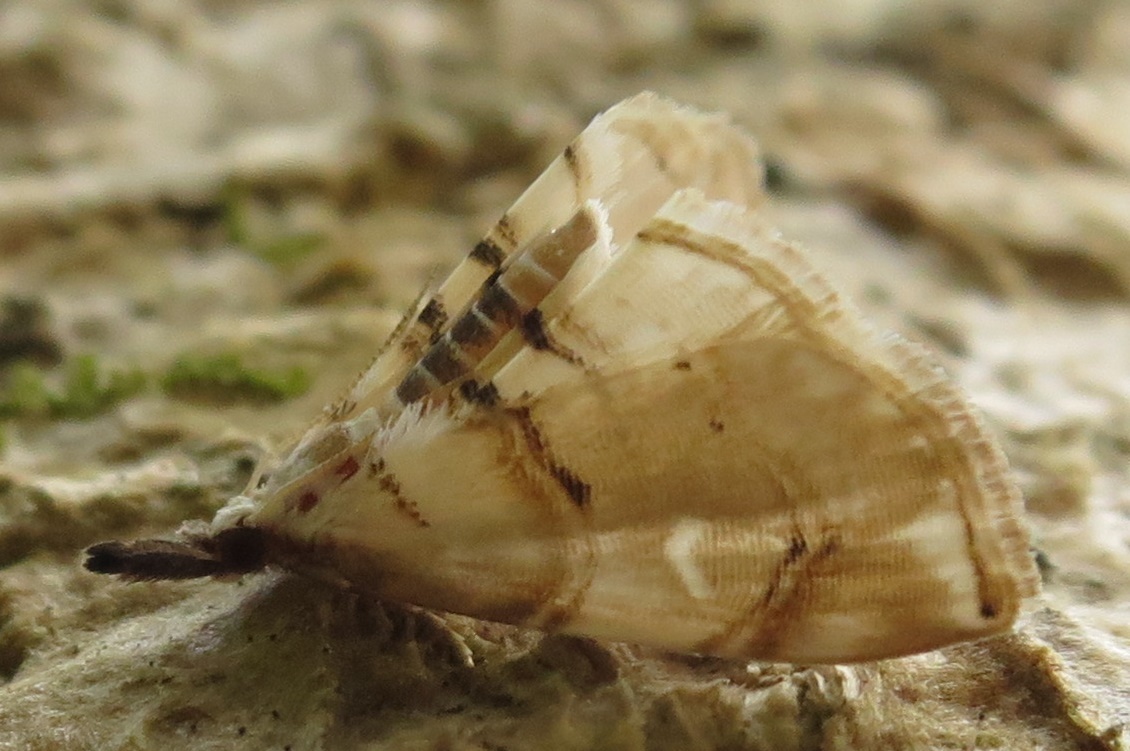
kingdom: Animalia
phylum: Arthropoda
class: Insecta
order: Lepidoptera
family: Crambidae
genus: Trichophysetis
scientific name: Trichophysetis
